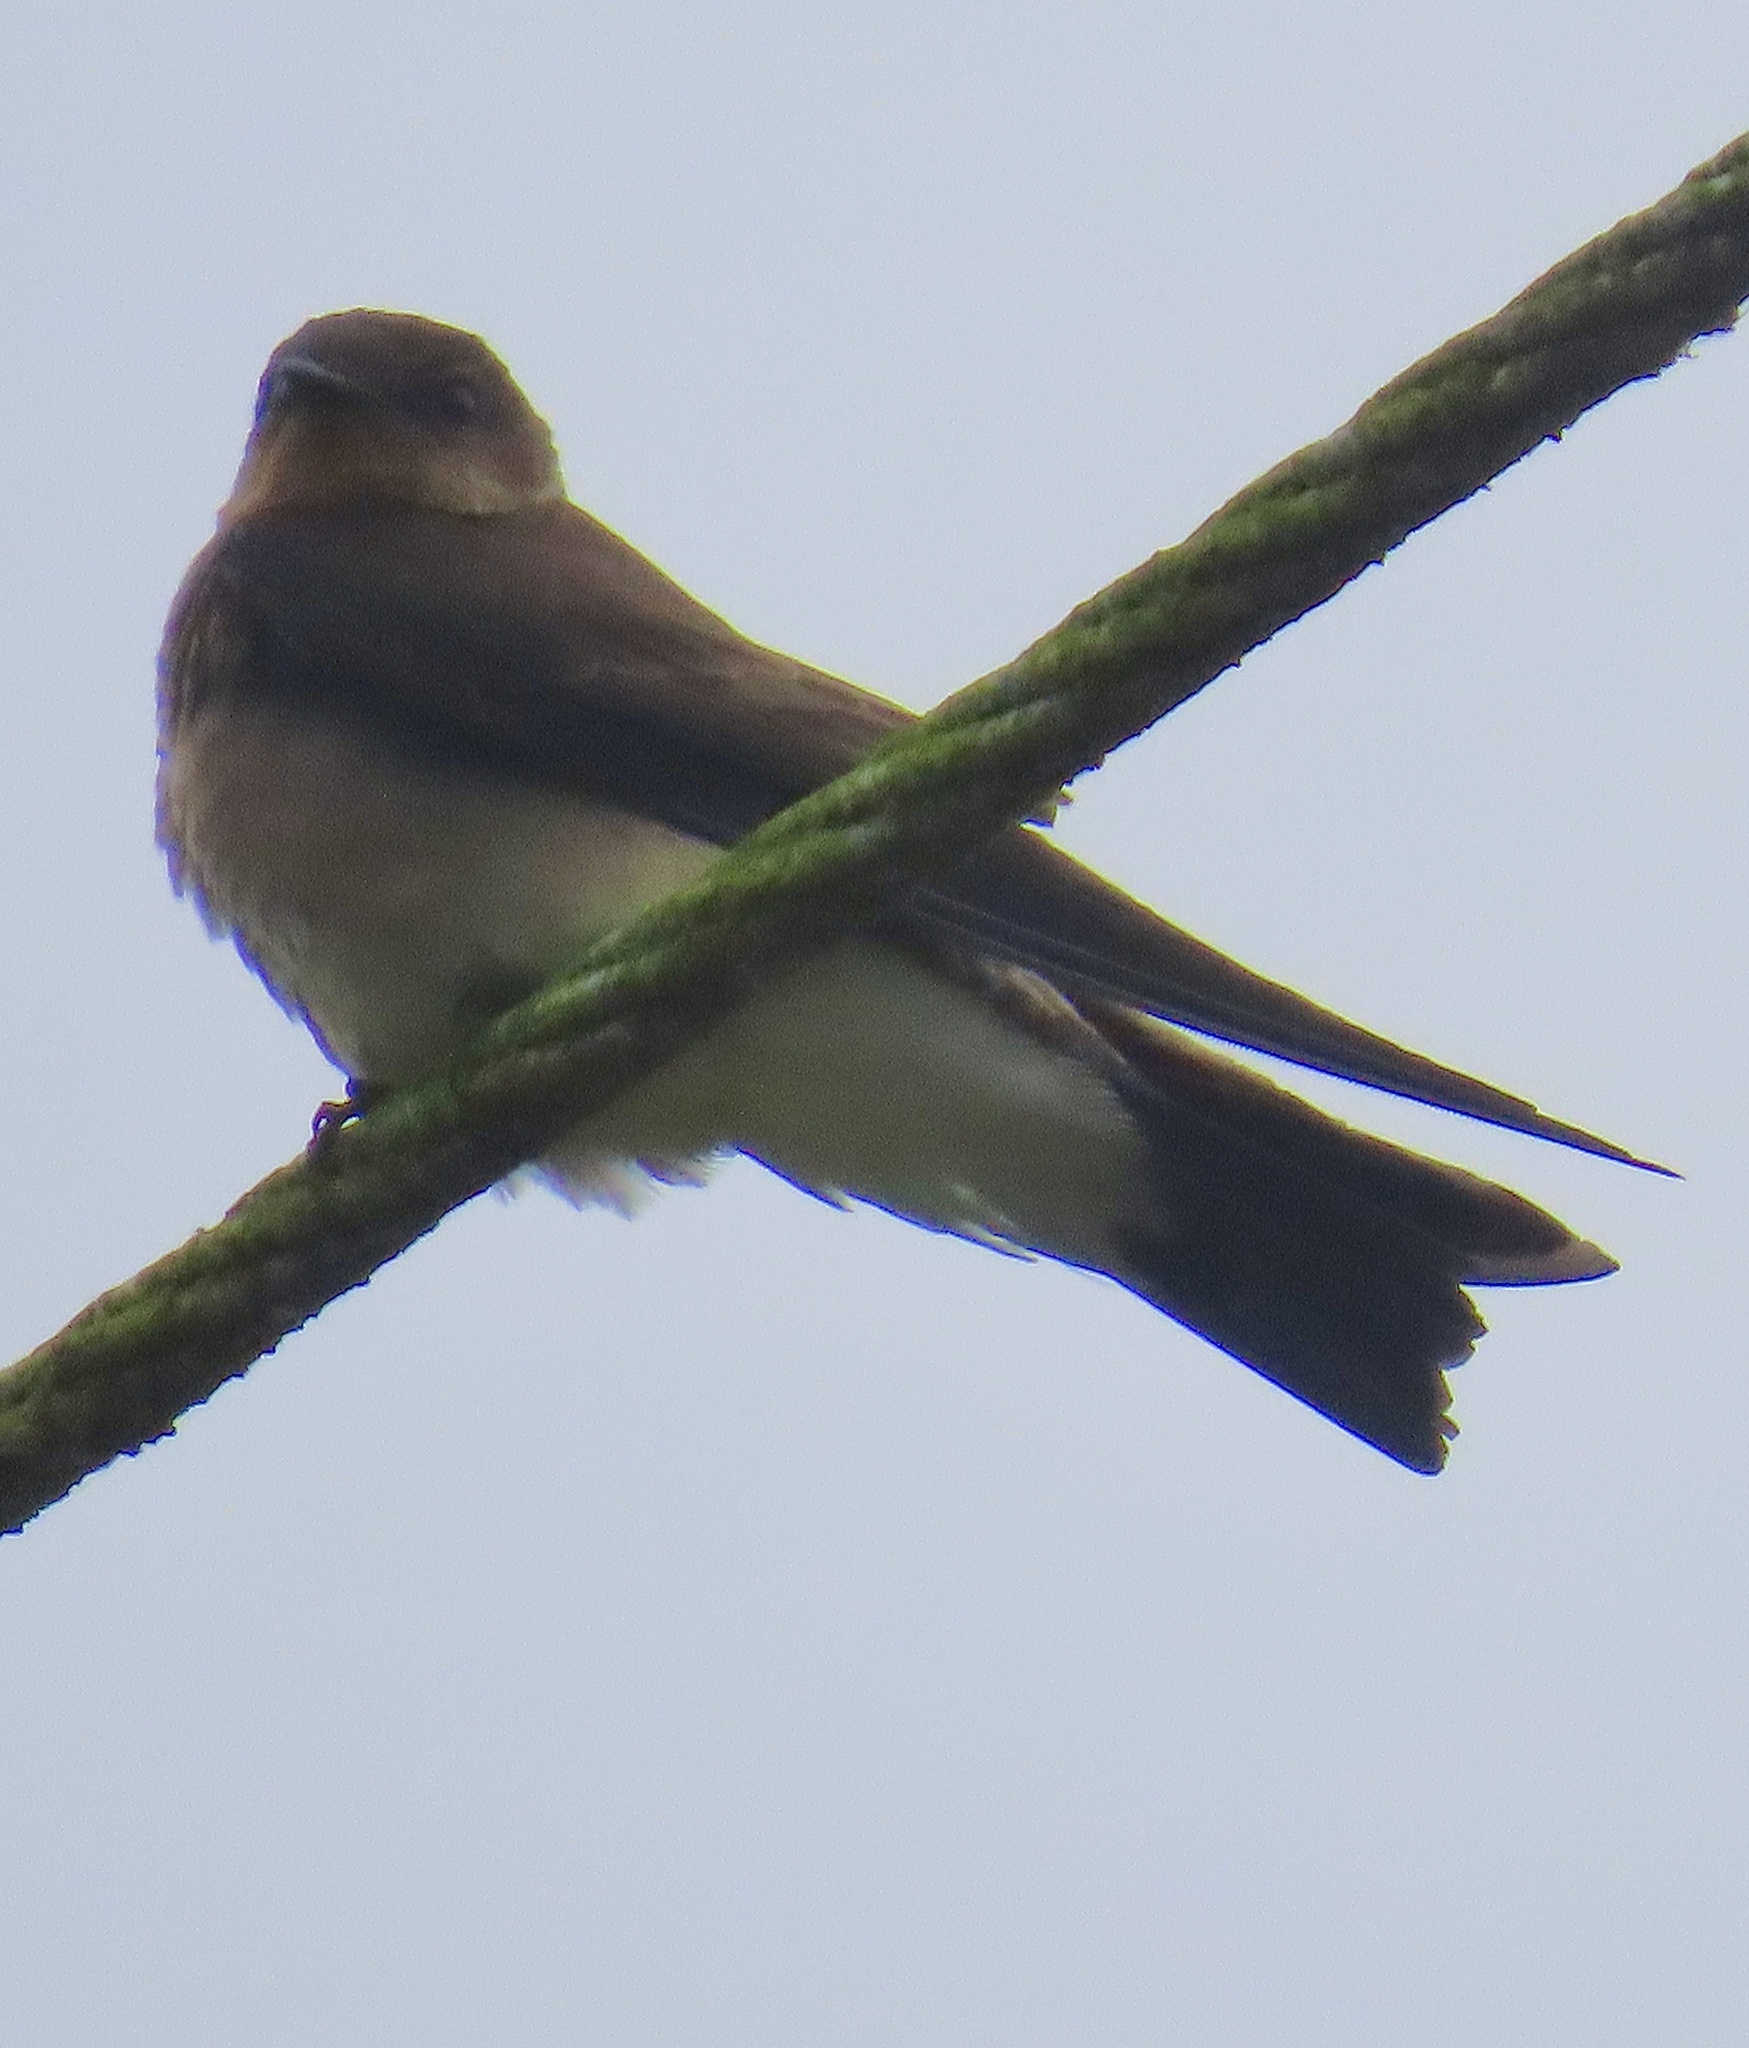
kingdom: Animalia
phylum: Chordata
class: Aves
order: Passeriformes
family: Hirundinidae
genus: Stelgidopteryx
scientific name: Stelgidopteryx ruficollis
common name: Southern rough-winged swallow
